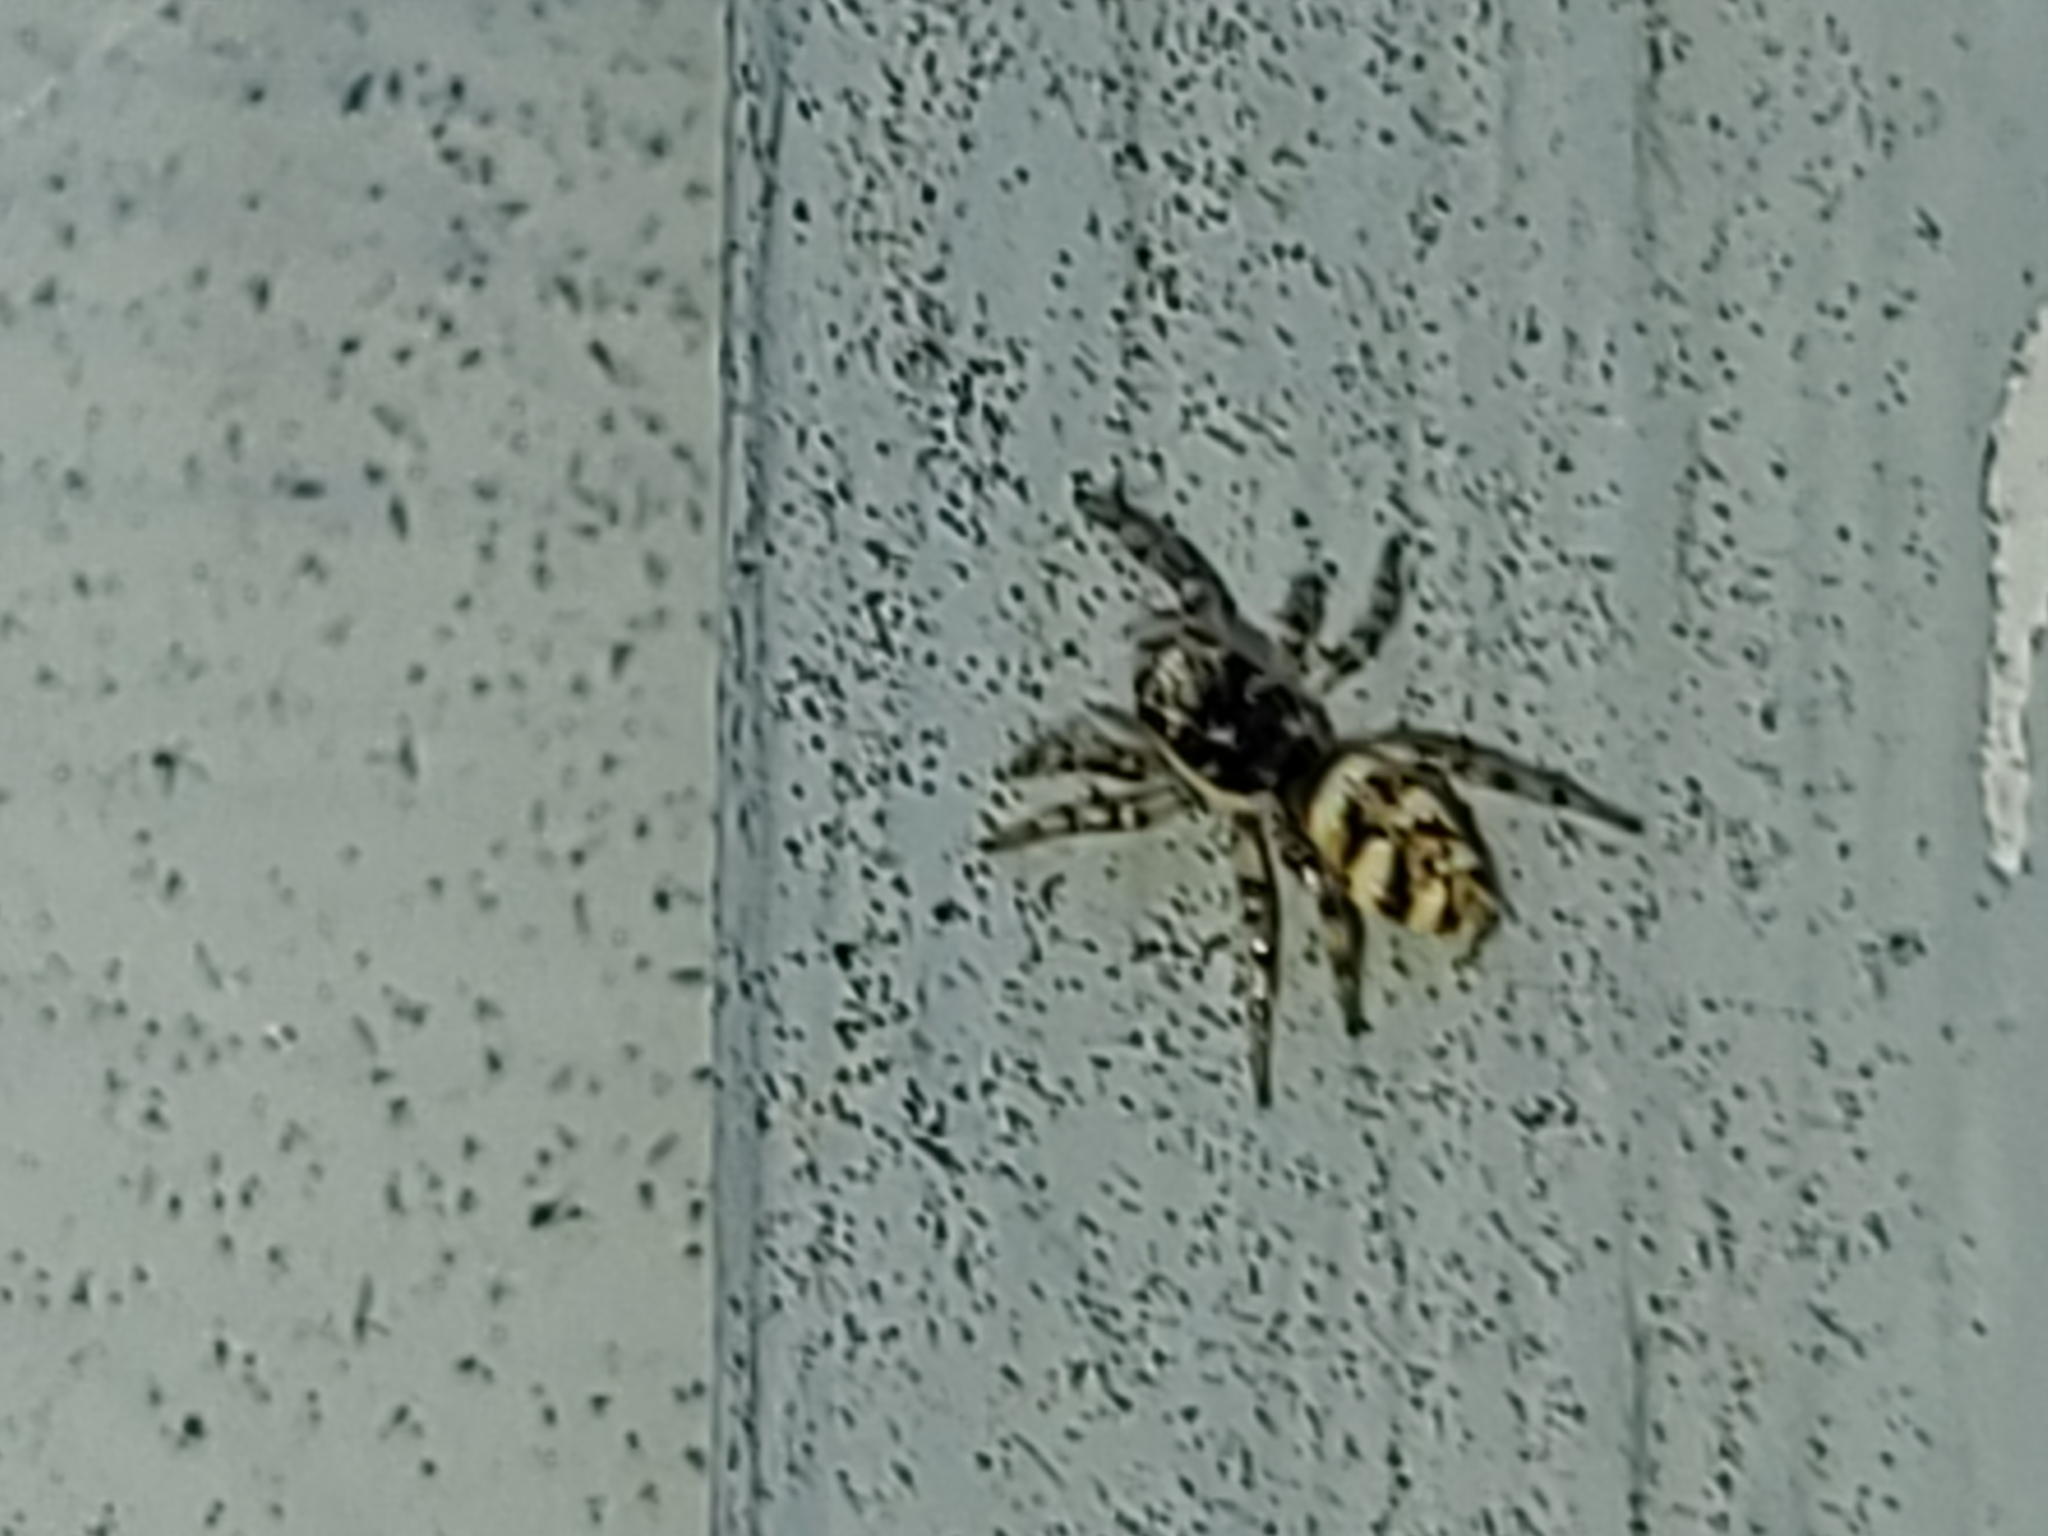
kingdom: Animalia
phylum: Arthropoda
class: Arachnida
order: Araneae
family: Salticidae
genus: Salticus
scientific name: Salticus scenicus
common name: Zebra jumper
